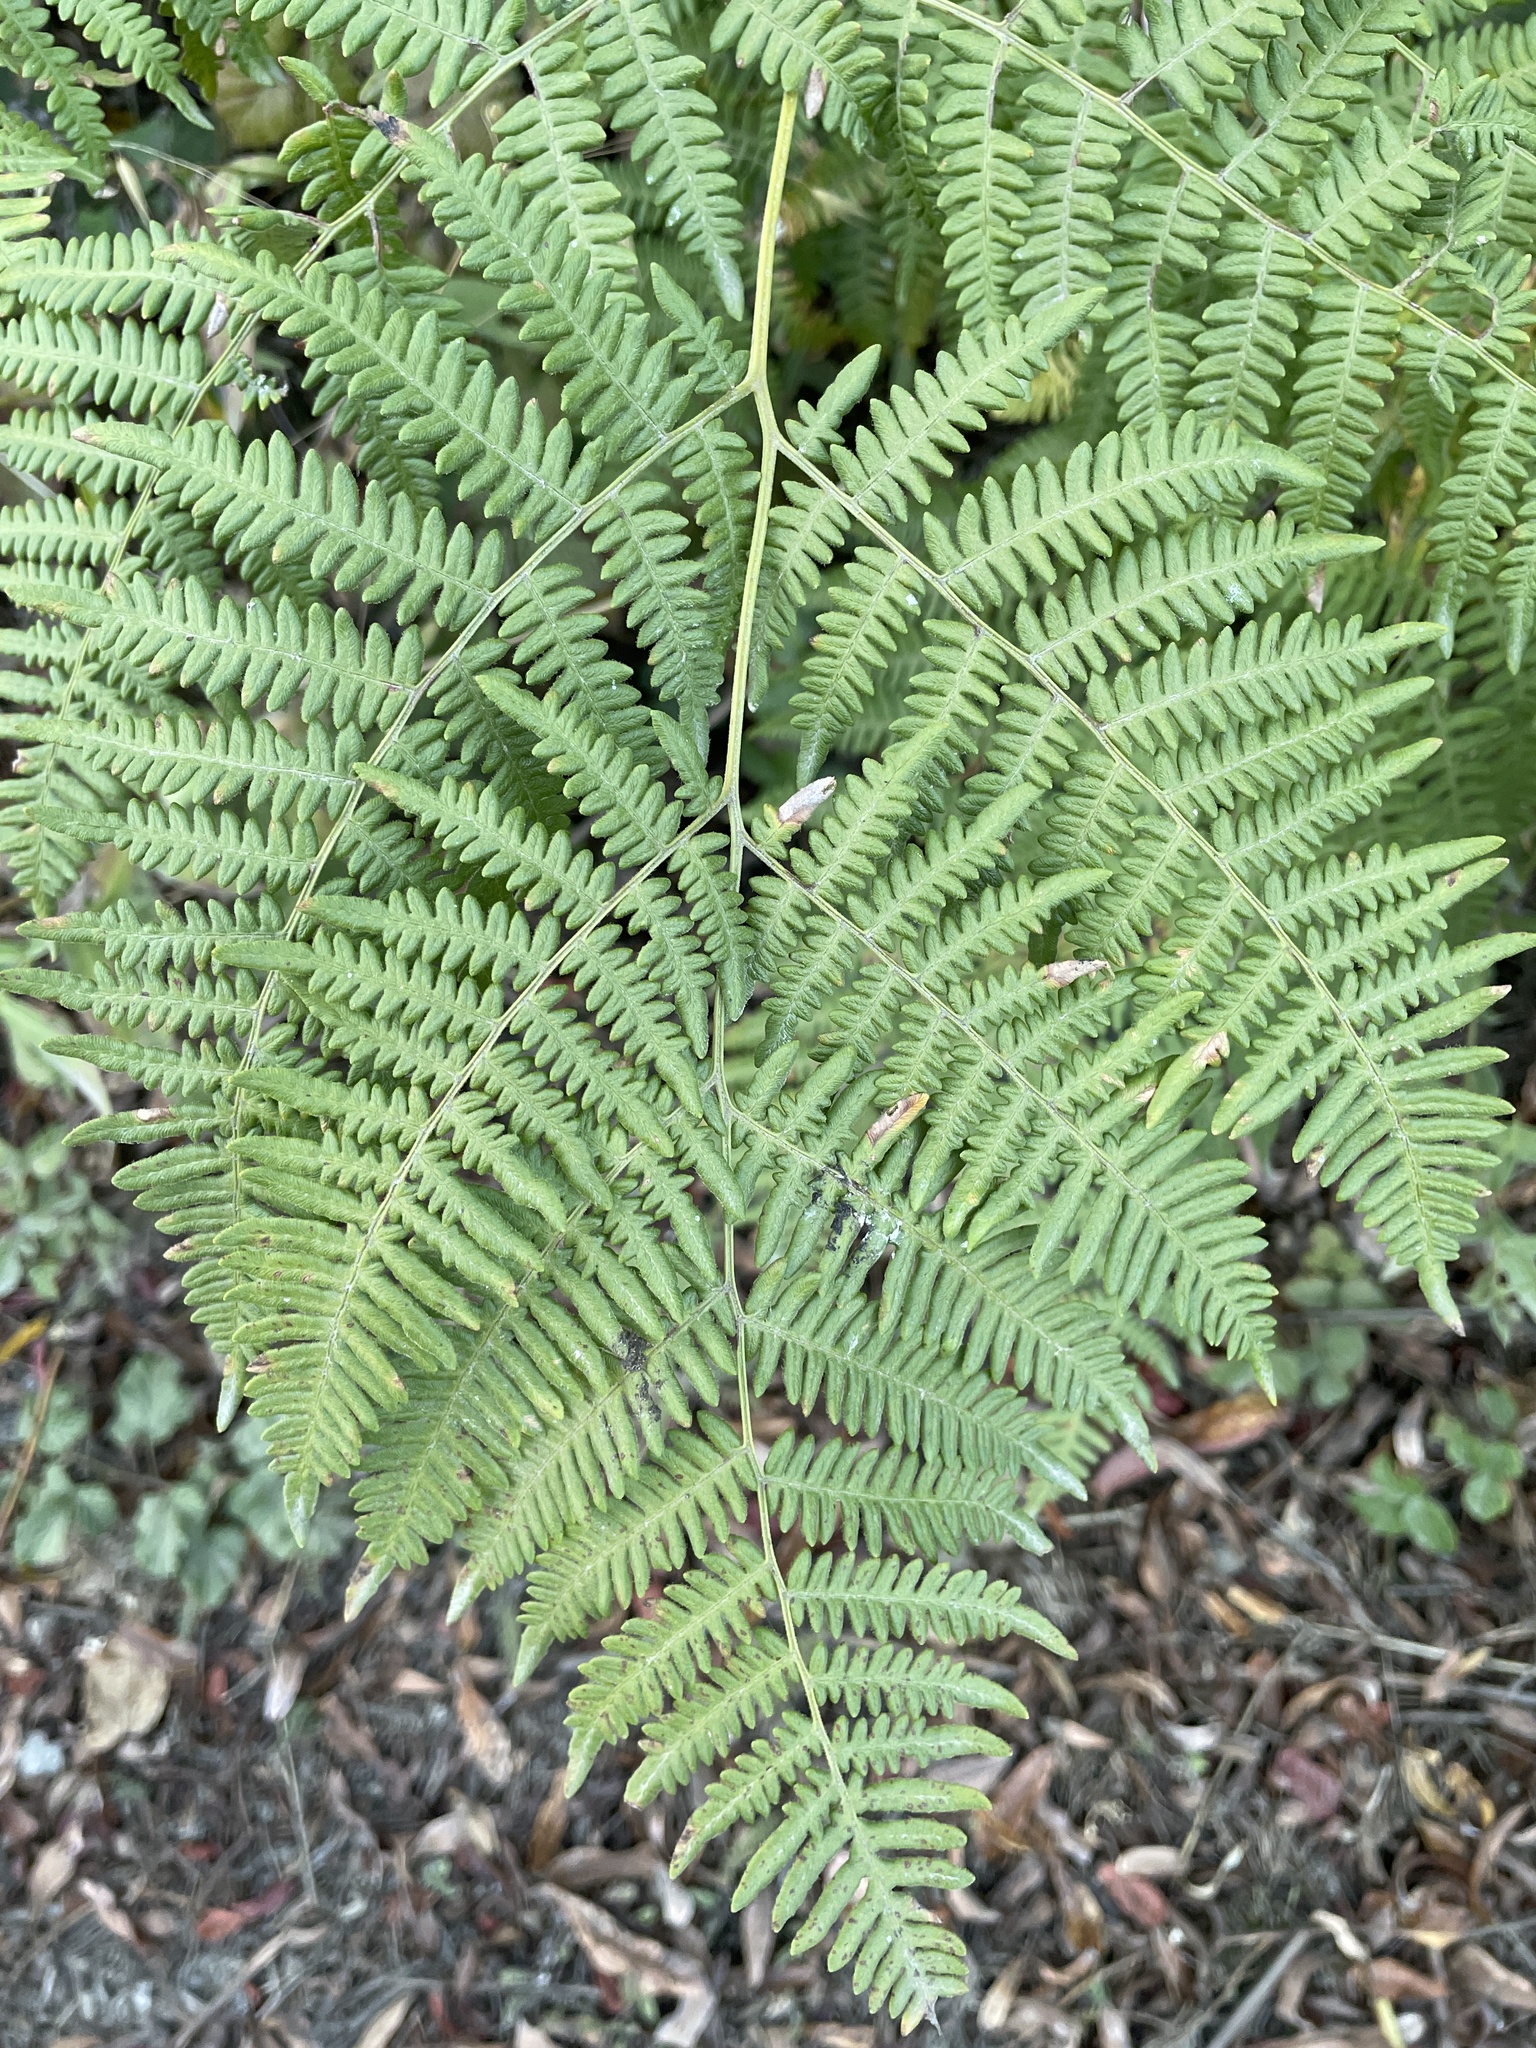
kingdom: Plantae
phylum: Tracheophyta
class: Polypodiopsida
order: Polypodiales
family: Dennstaedtiaceae
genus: Pteridium
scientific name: Pteridium aquilinum
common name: Bracken
